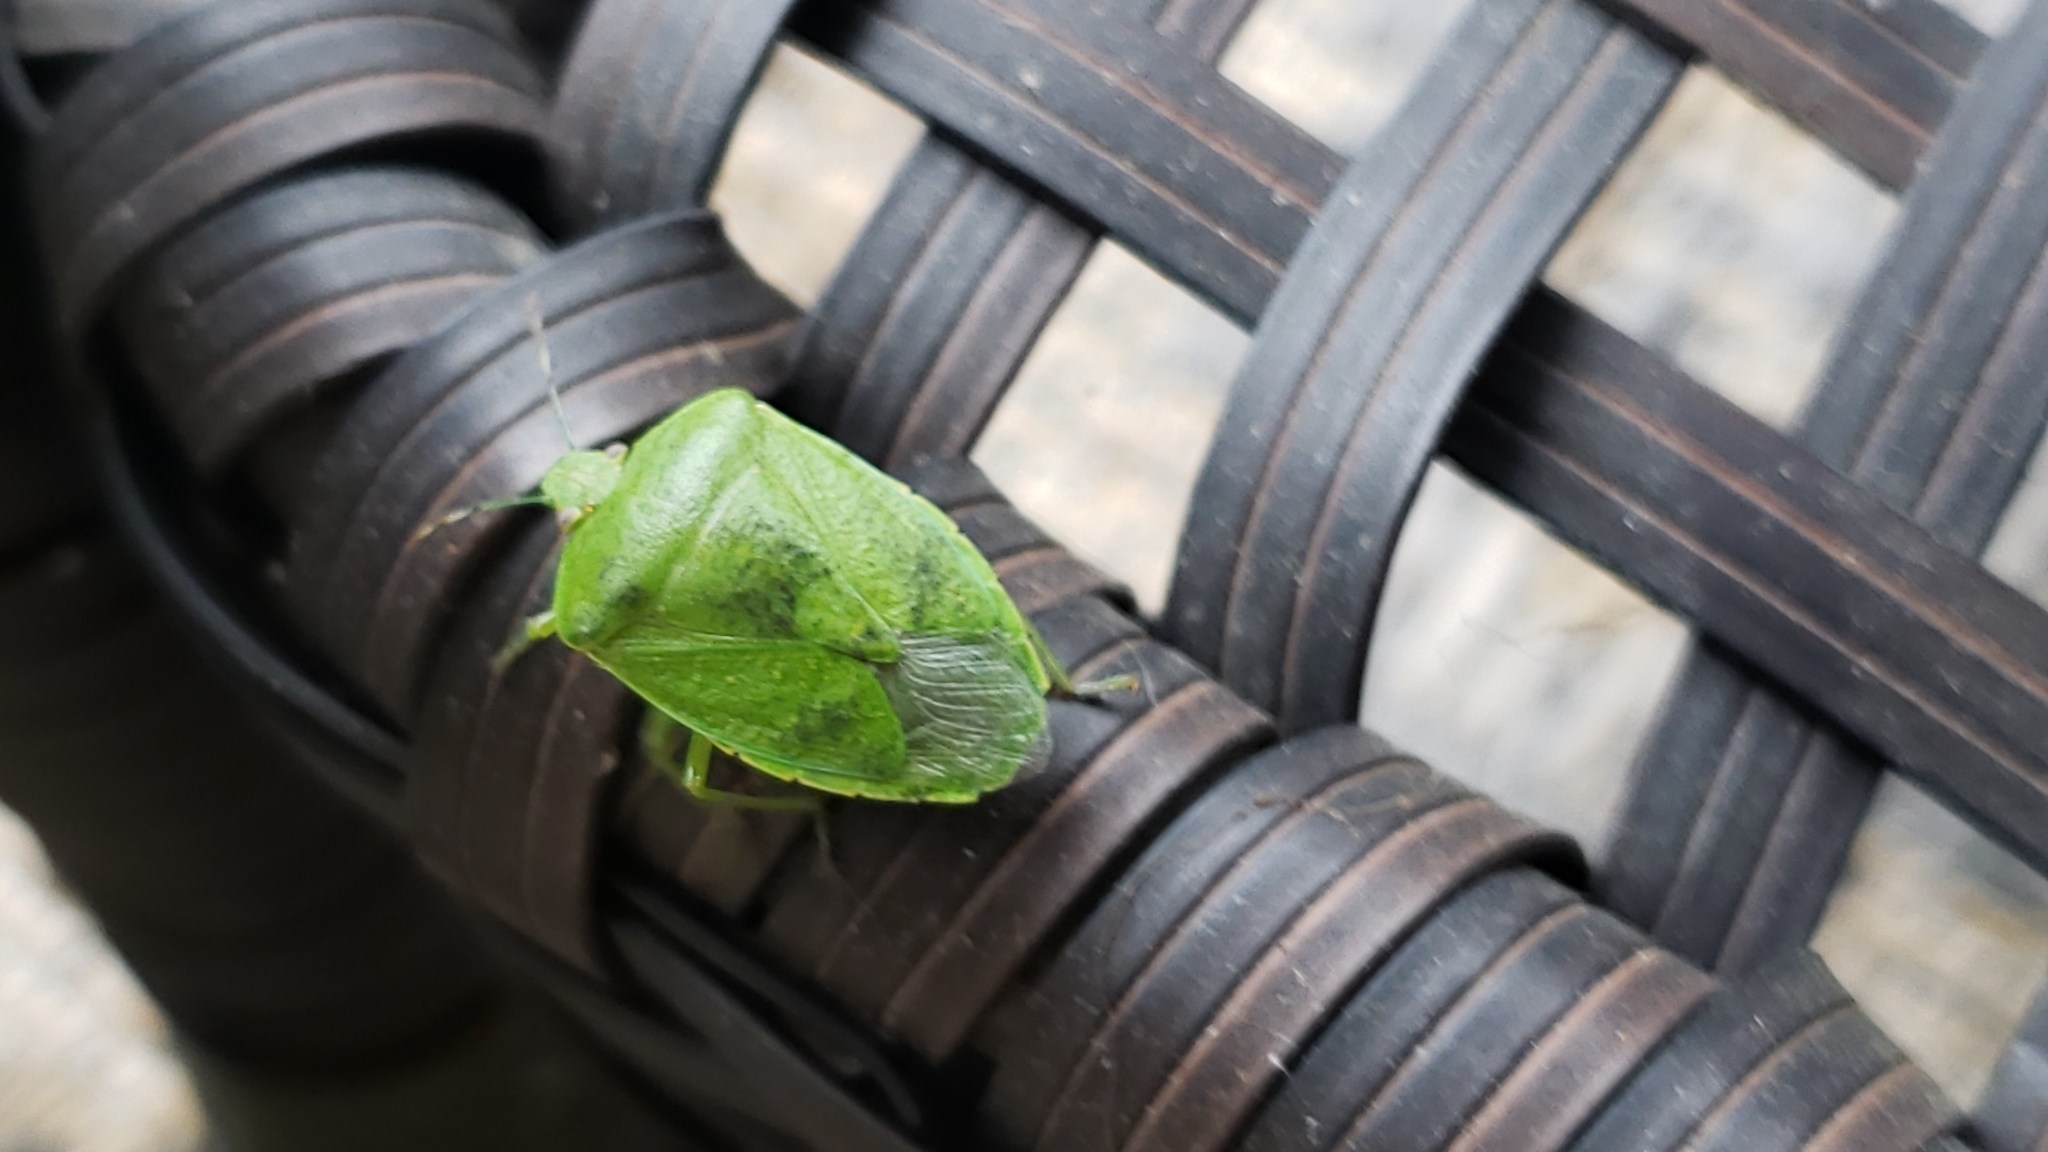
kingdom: Animalia
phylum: Arthropoda
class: Insecta
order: Hemiptera
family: Pentatomidae
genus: Chinavia
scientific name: Chinavia hilaris
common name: Green stink bug
